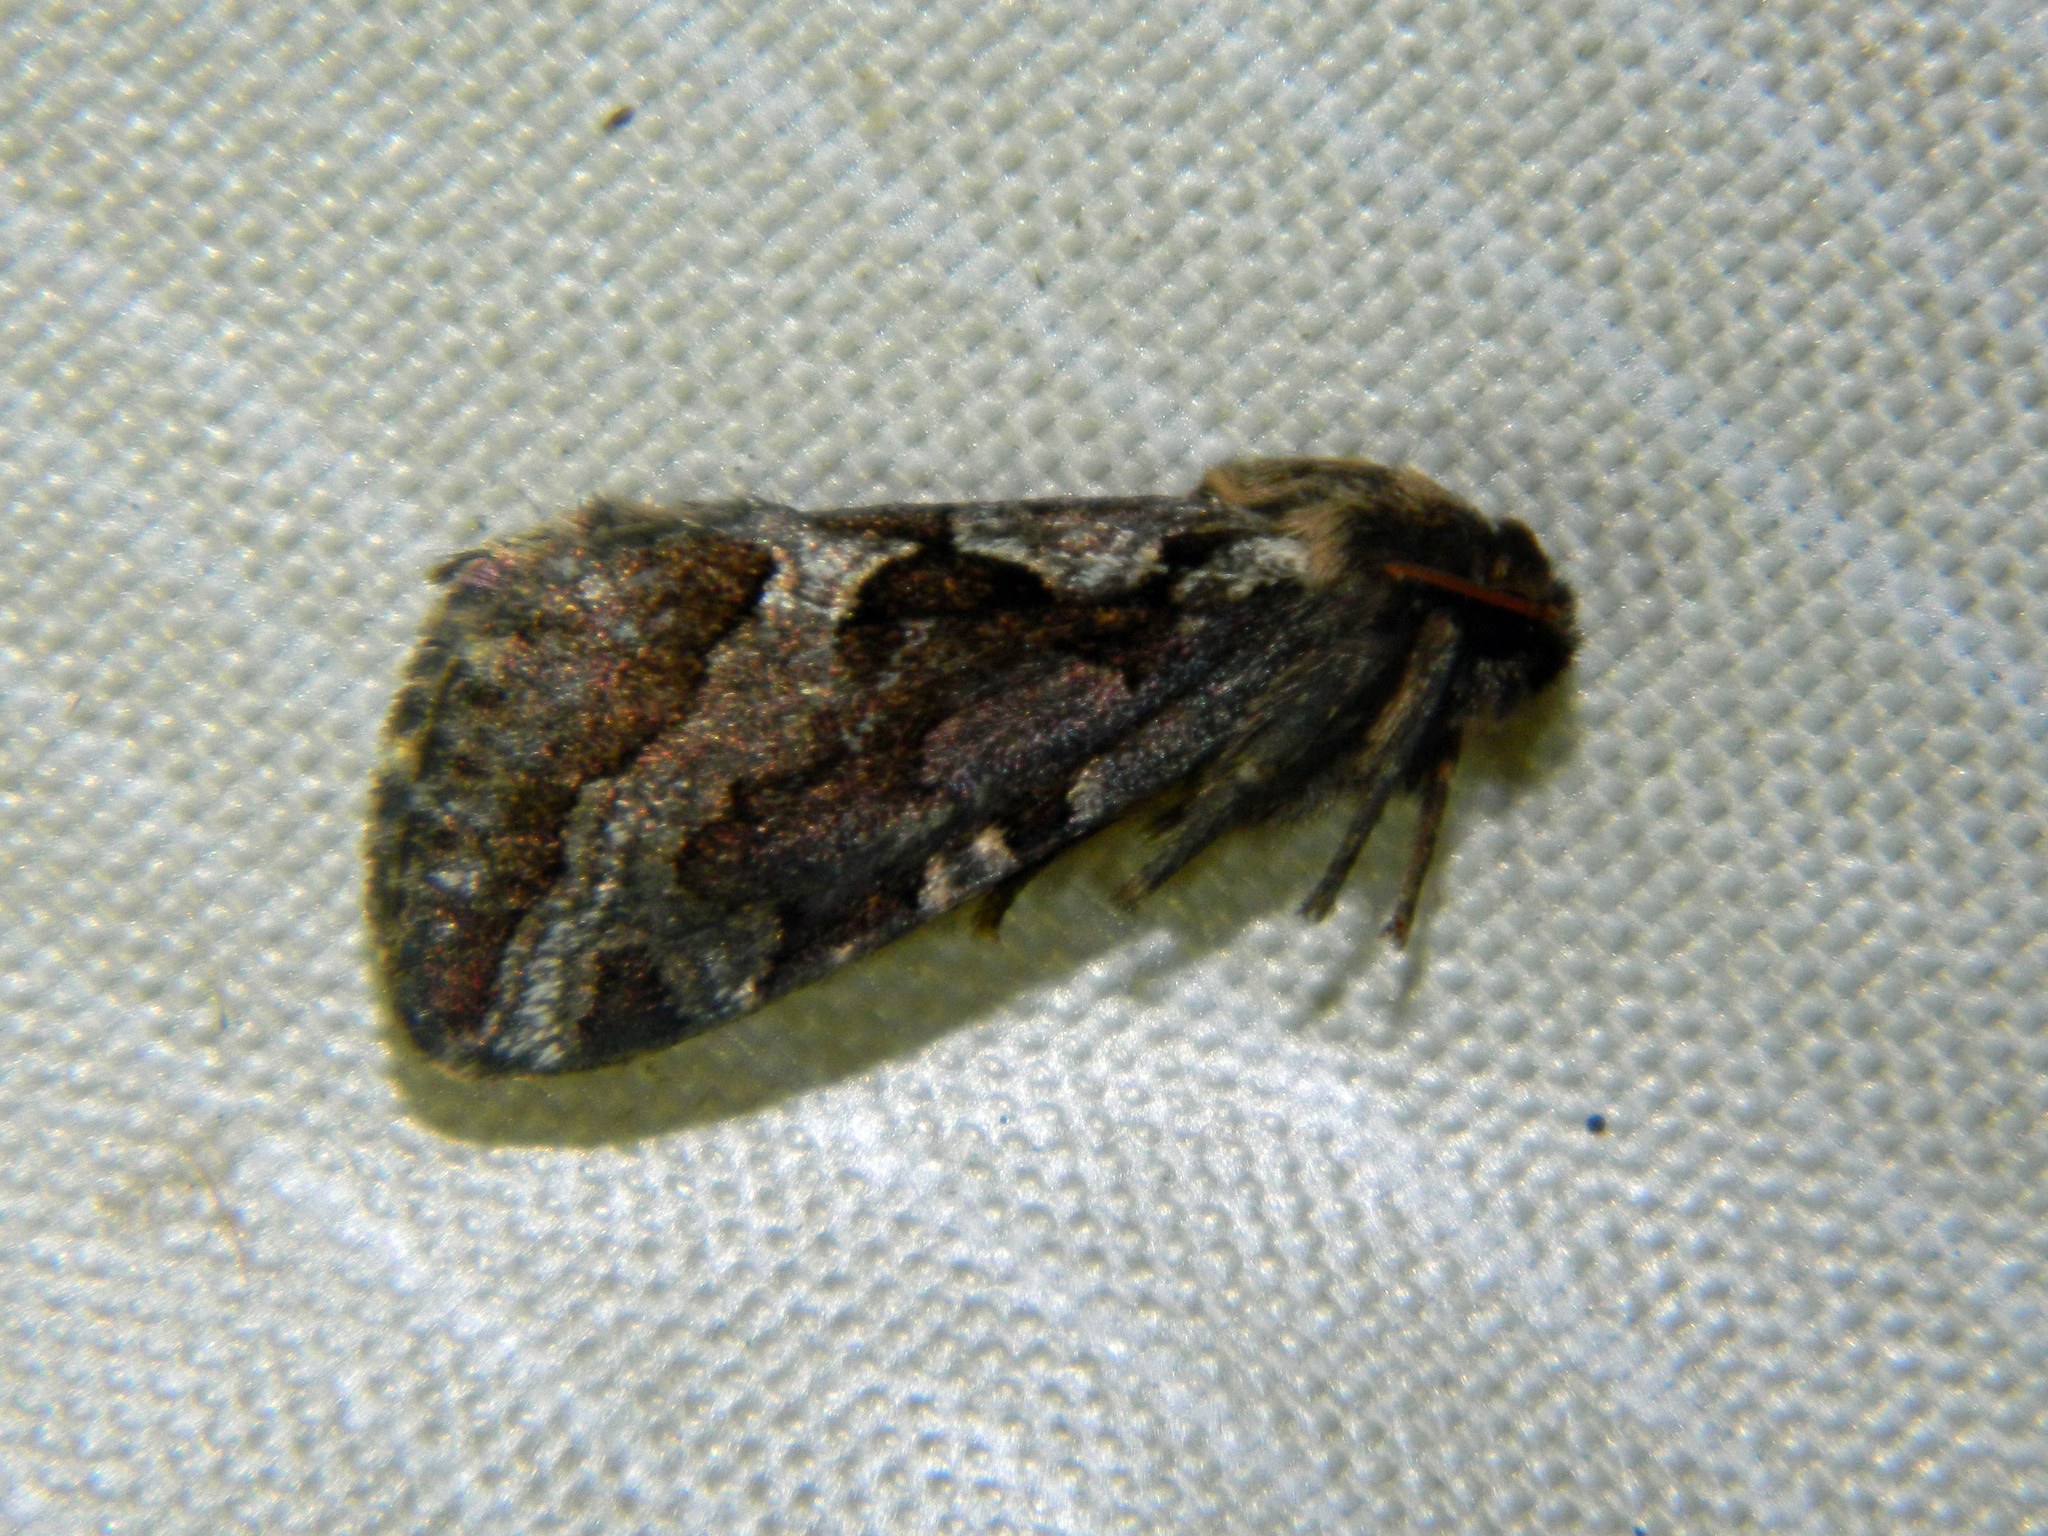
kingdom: Animalia
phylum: Arthropoda
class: Insecta
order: Lepidoptera
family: Hepialidae
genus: Korscheltellus
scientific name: Korscheltellus gracilis
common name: Conifer swift moth
